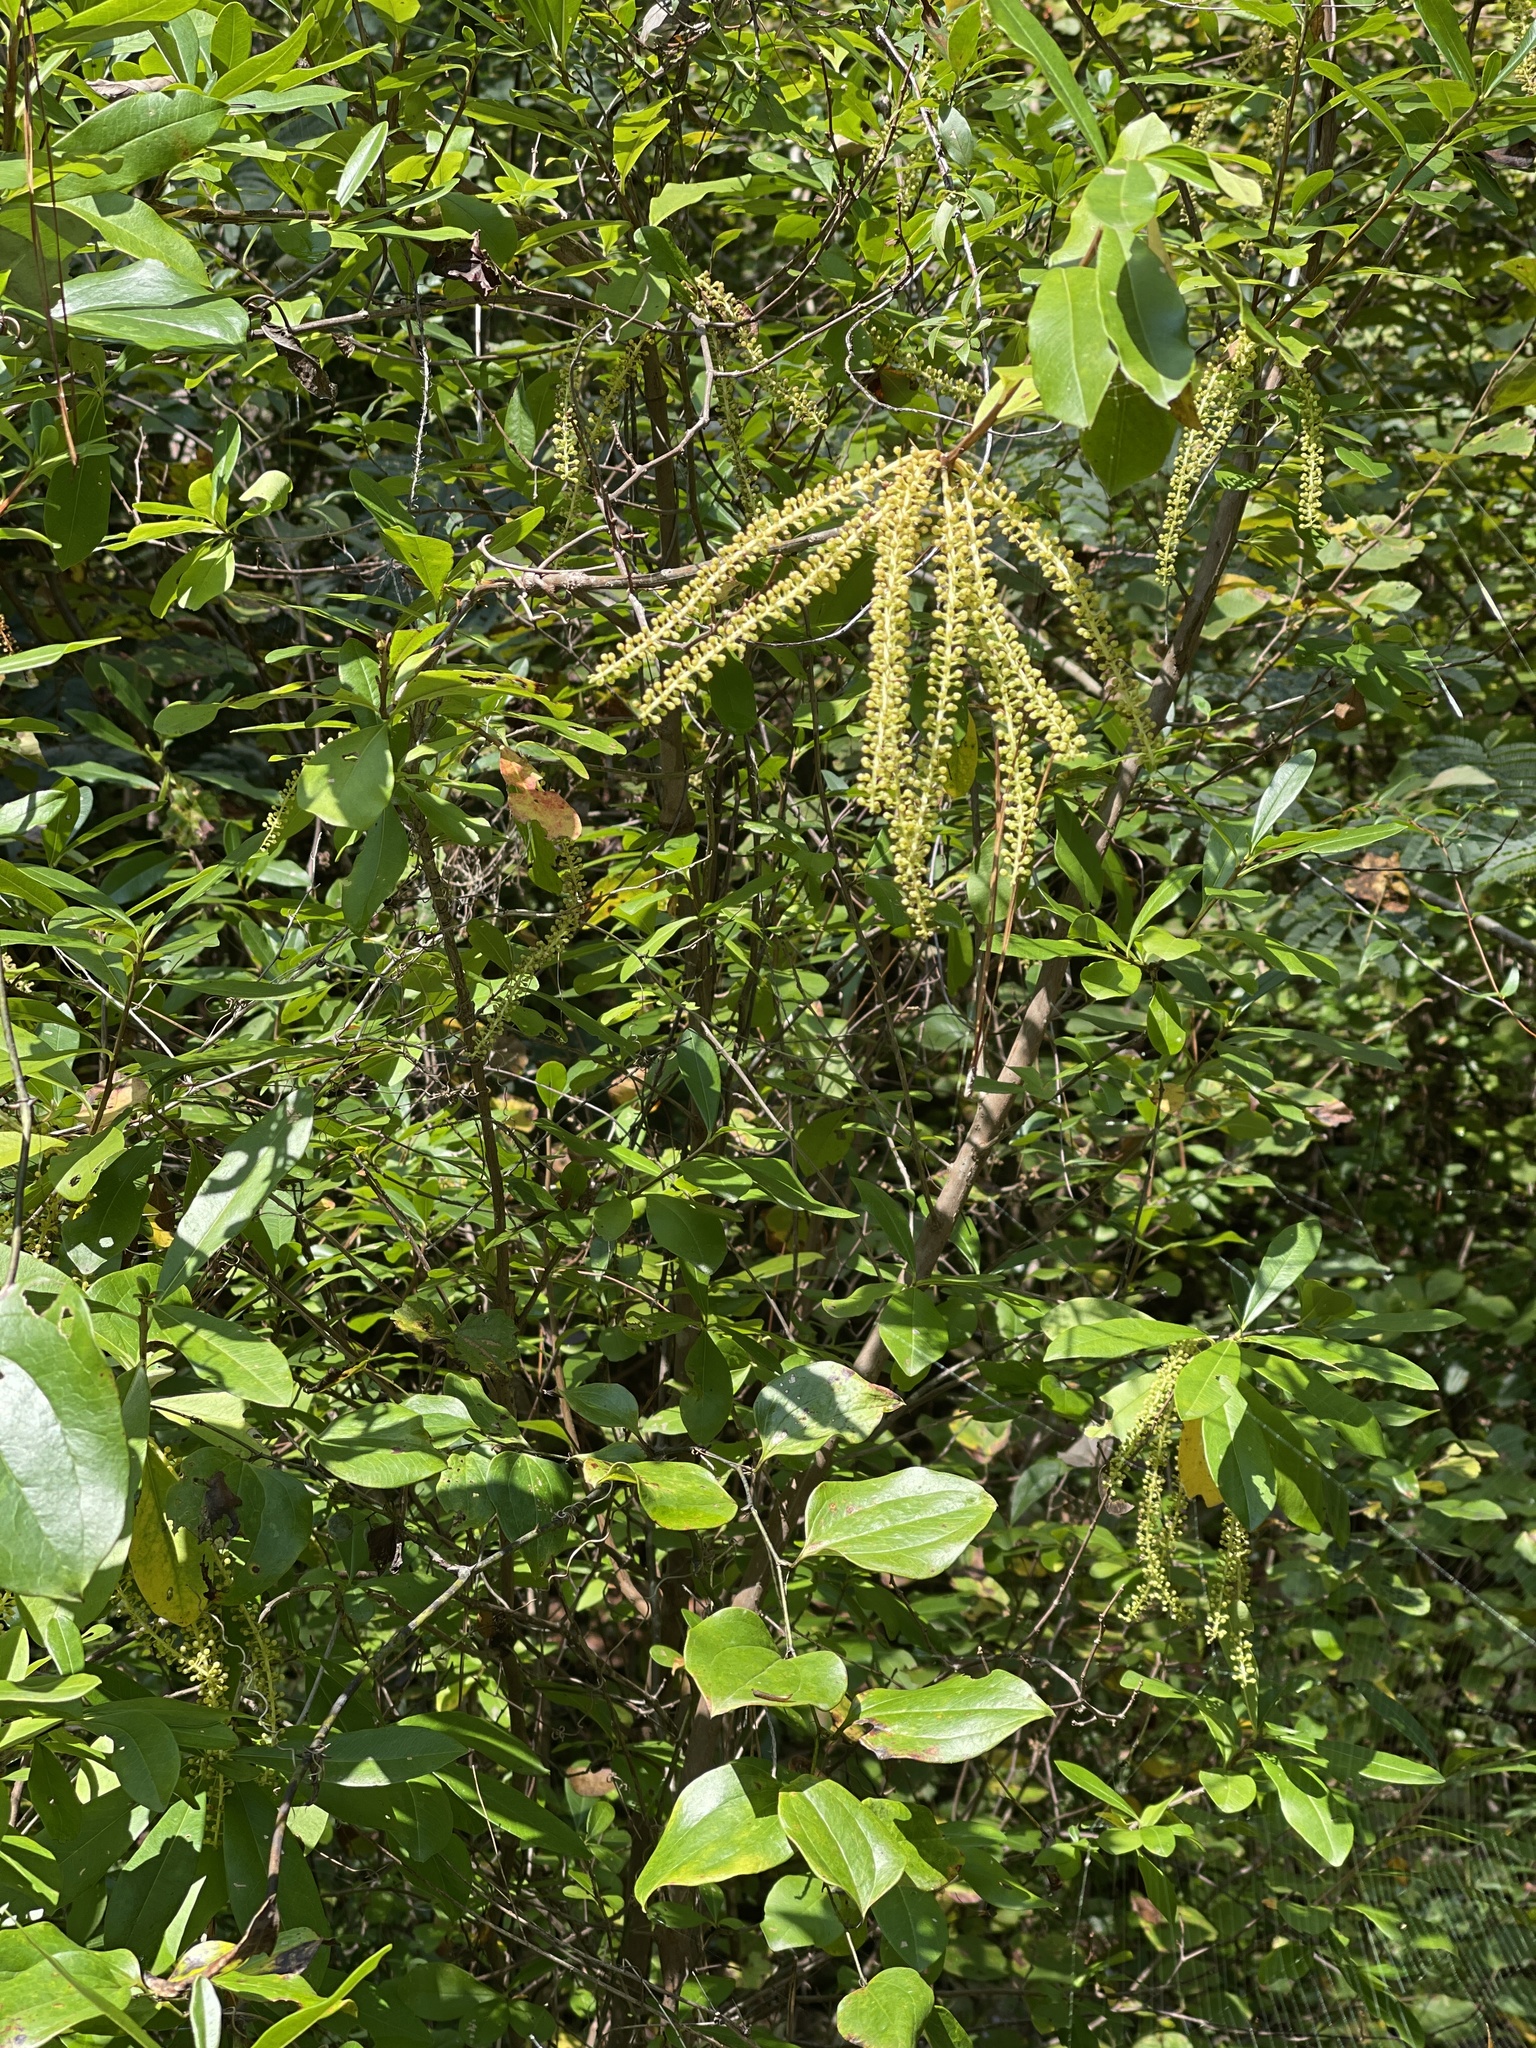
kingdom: Plantae
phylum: Tracheophyta
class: Magnoliopsida
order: Ericales
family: Cyrillaceae
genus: Cyrilla
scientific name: Cyrilla racemiflora
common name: Black titi
